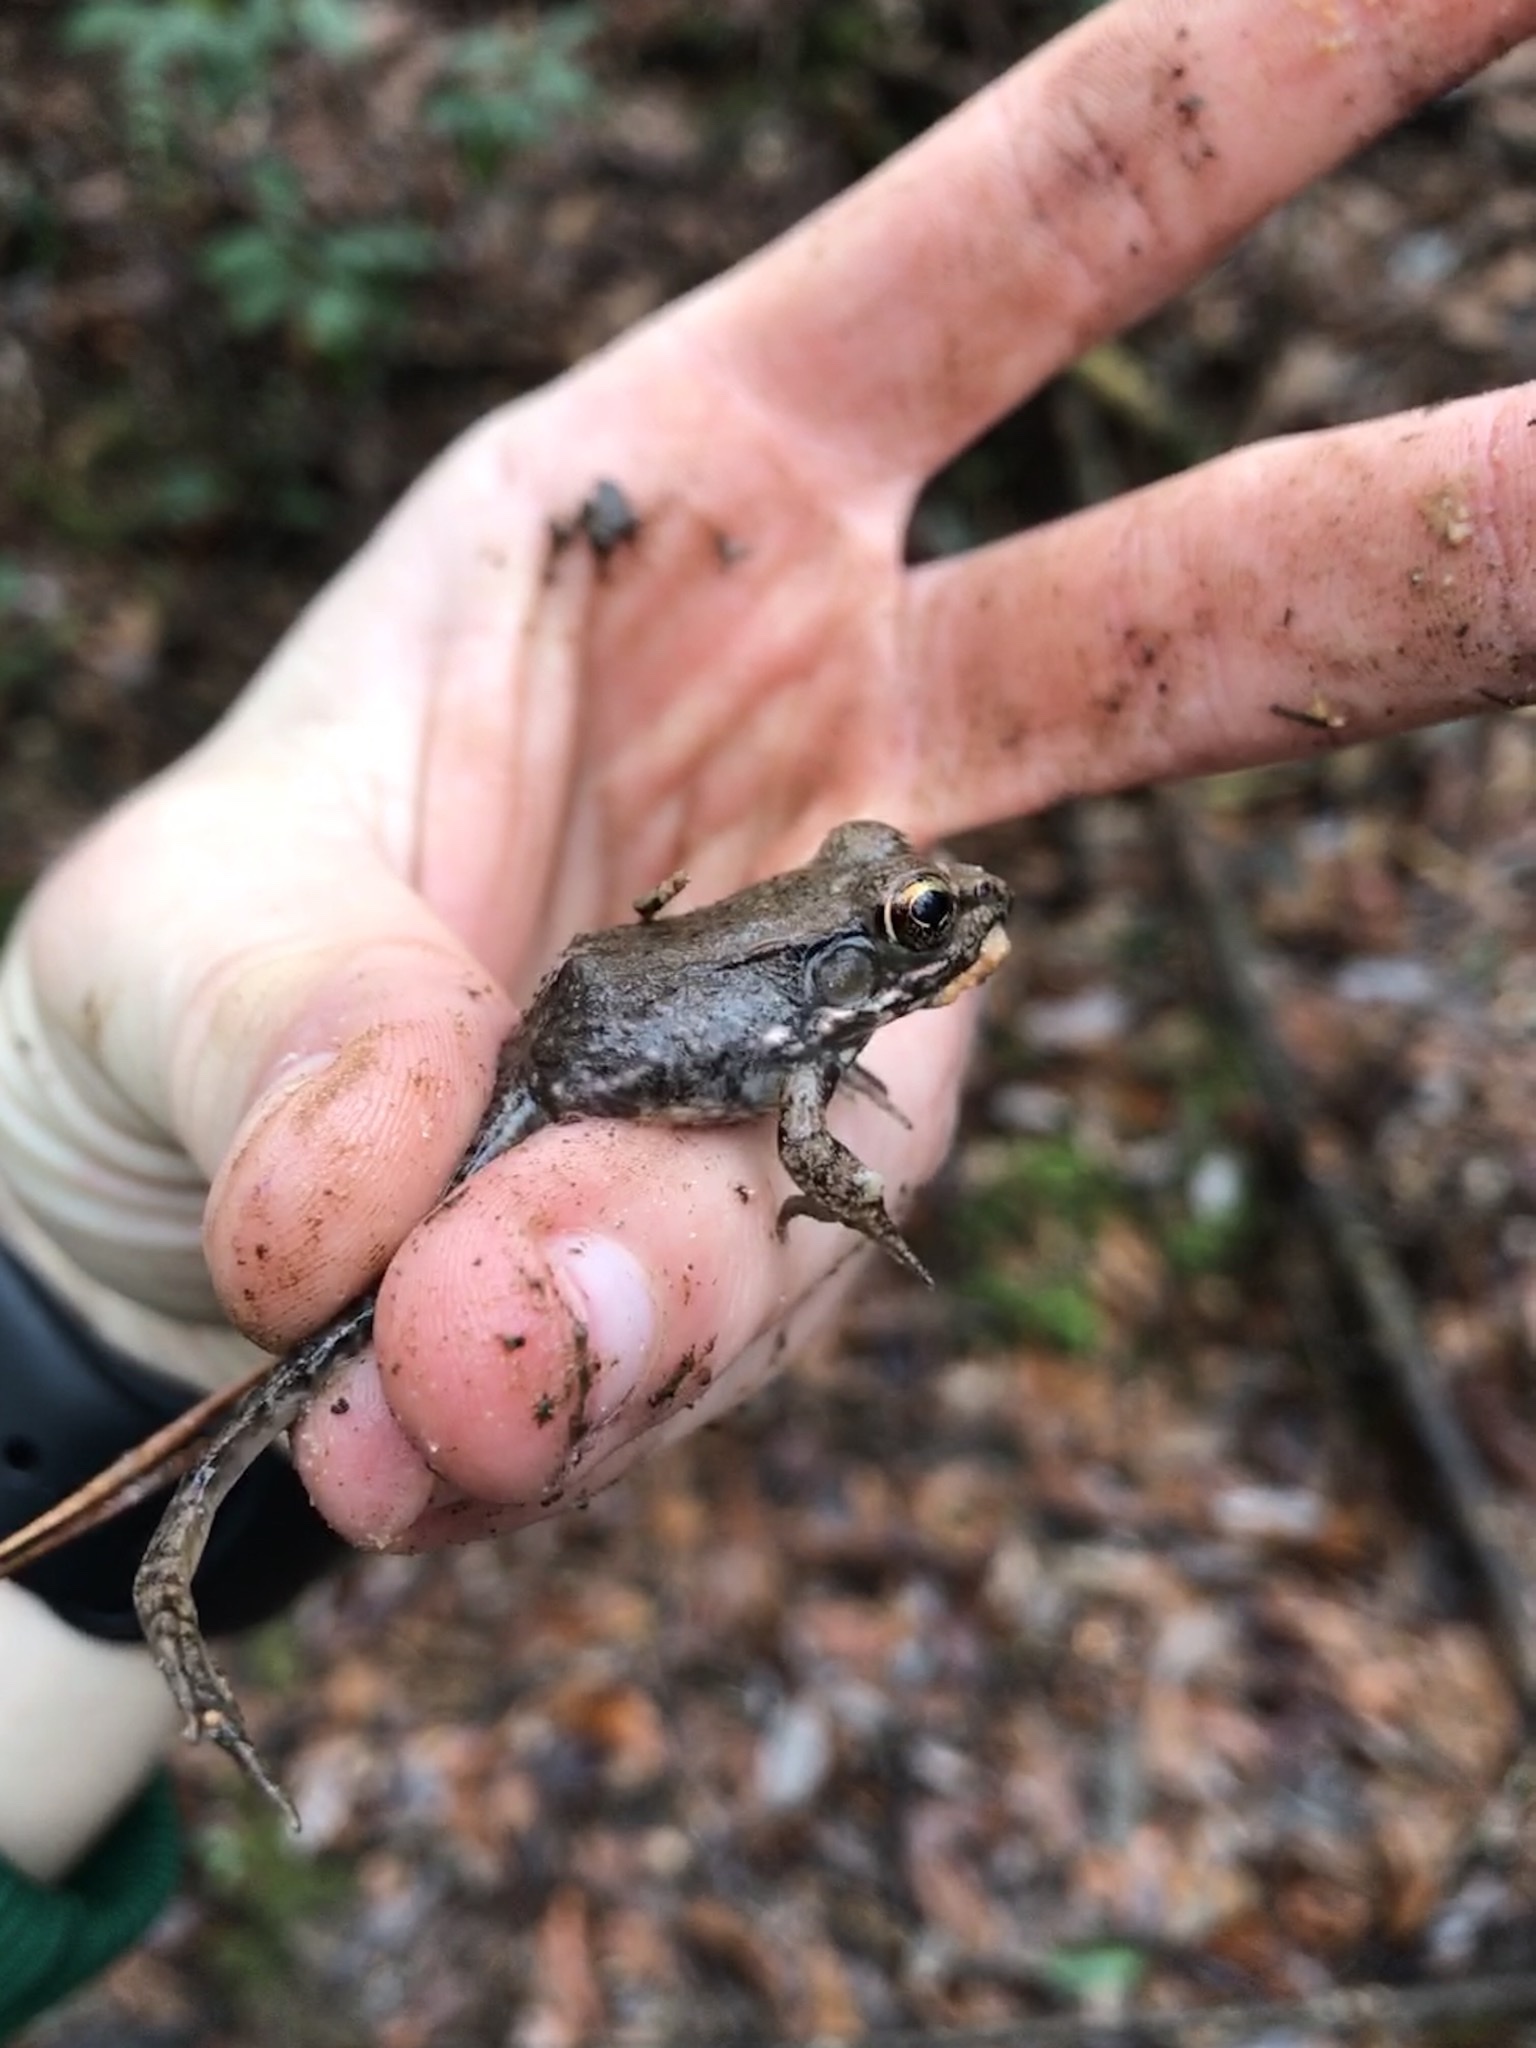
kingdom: Animalia
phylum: Chordata
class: Amphibia
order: Anura
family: Ranidae
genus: Lithobates
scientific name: Lithobates clamitans
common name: Green frog
